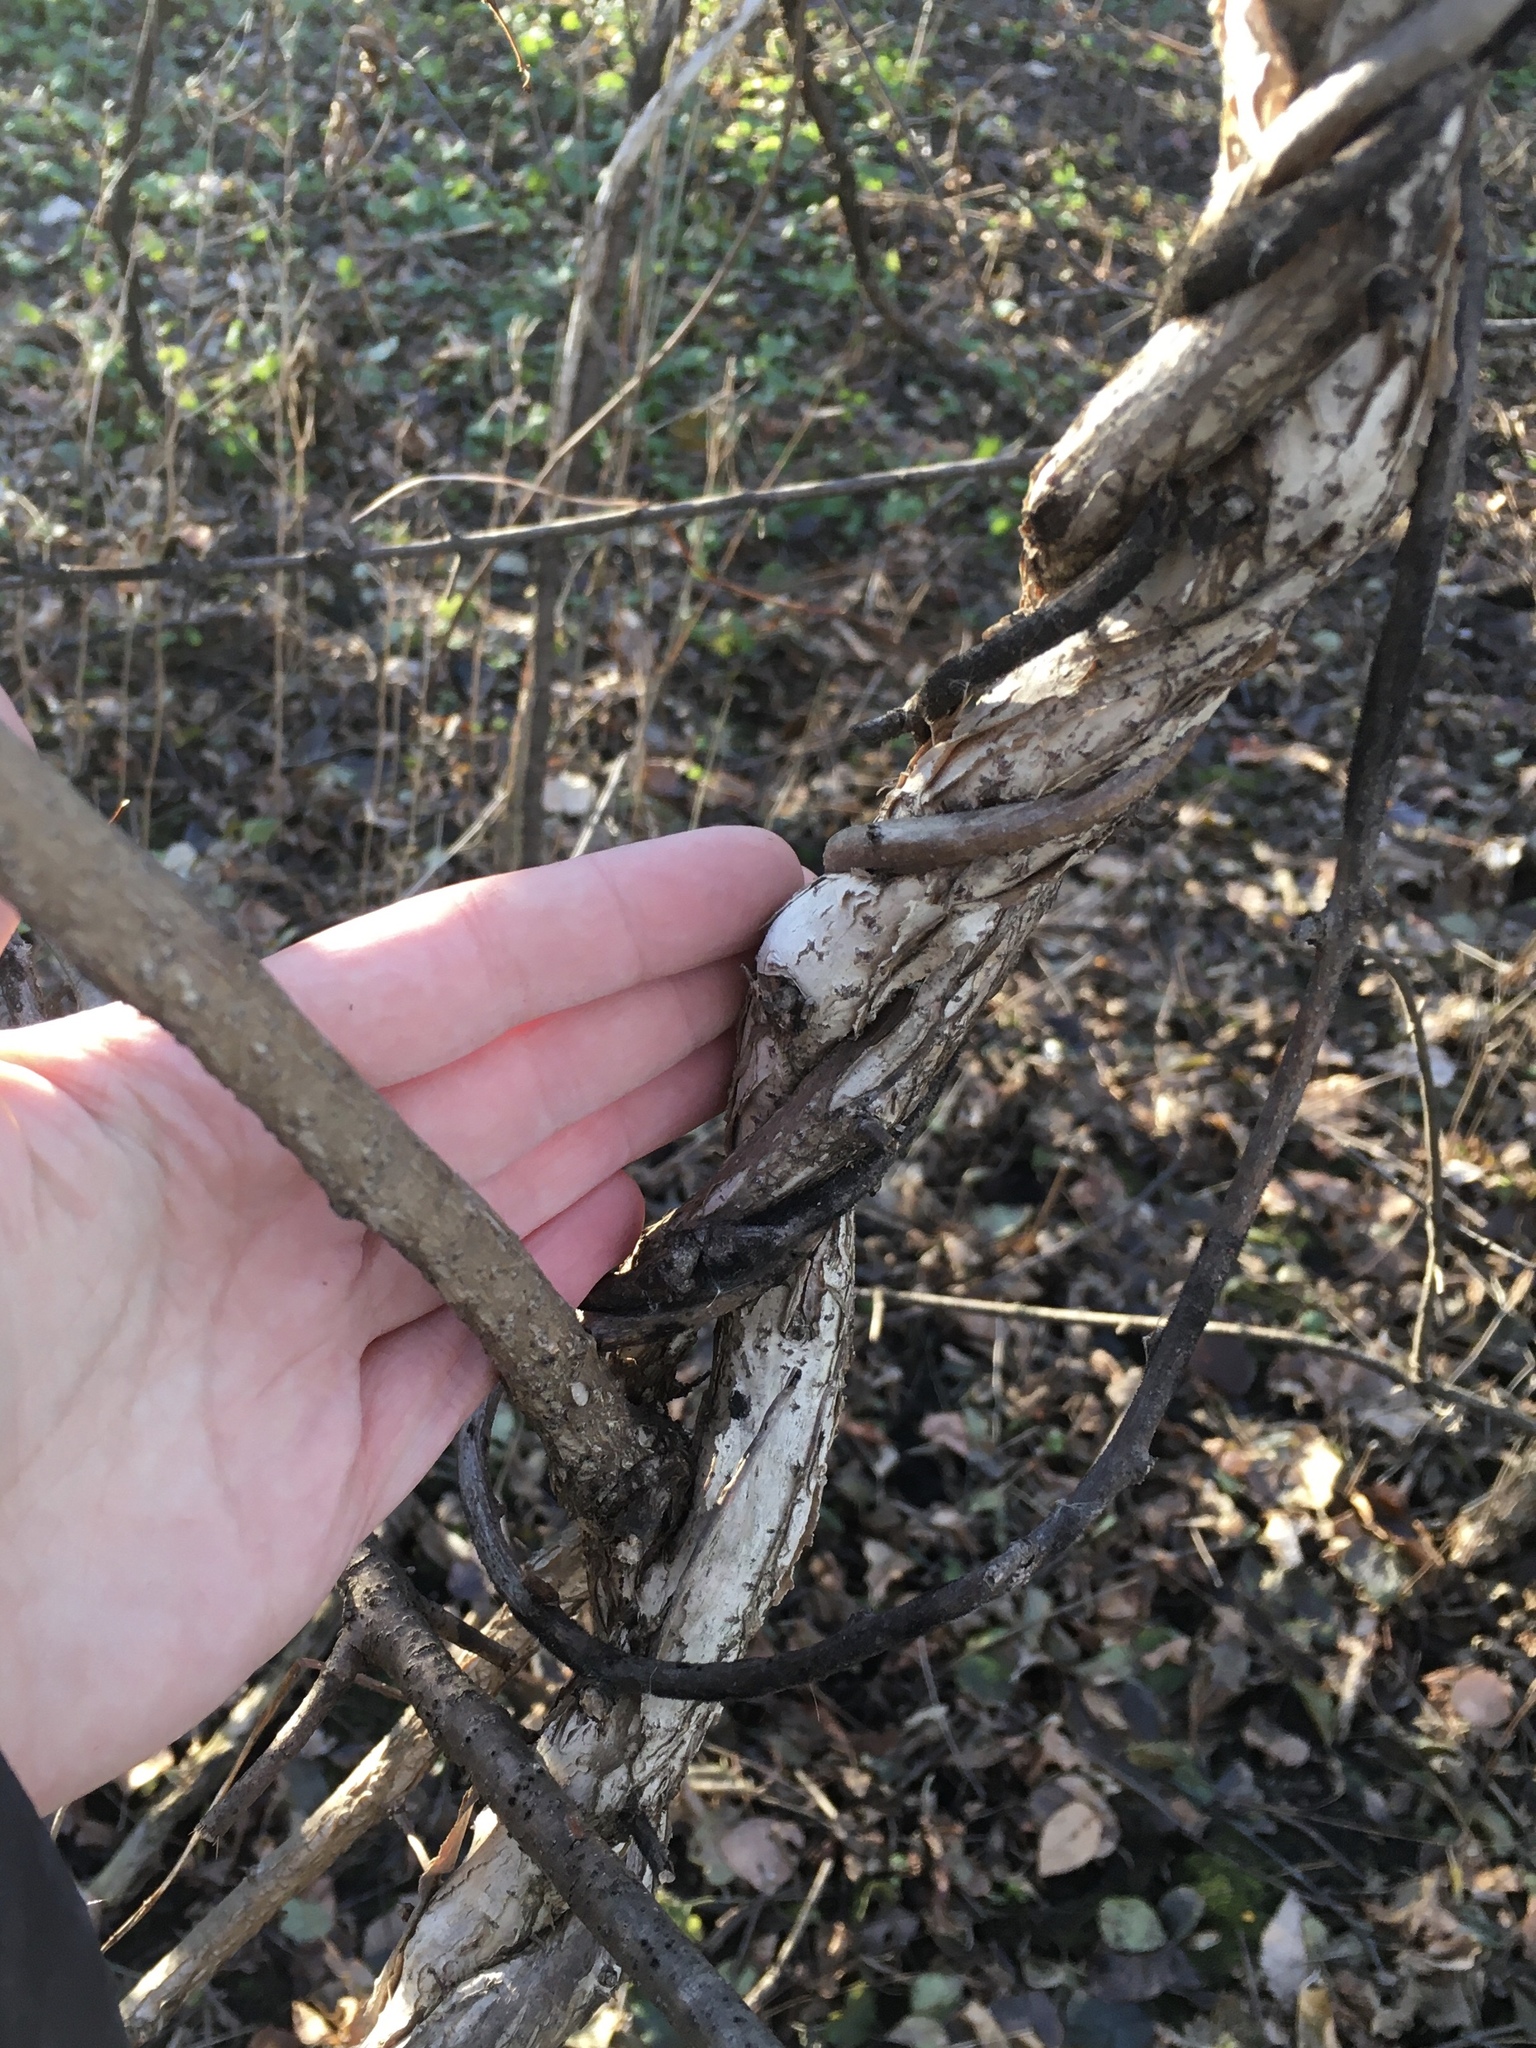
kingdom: Plantae
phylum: Tracheophyta
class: Magnoliopsida
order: Celastrales
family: Celastraceae
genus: Celastrus
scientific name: Celastrus orbiculatus
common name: Oriental bittersweet
